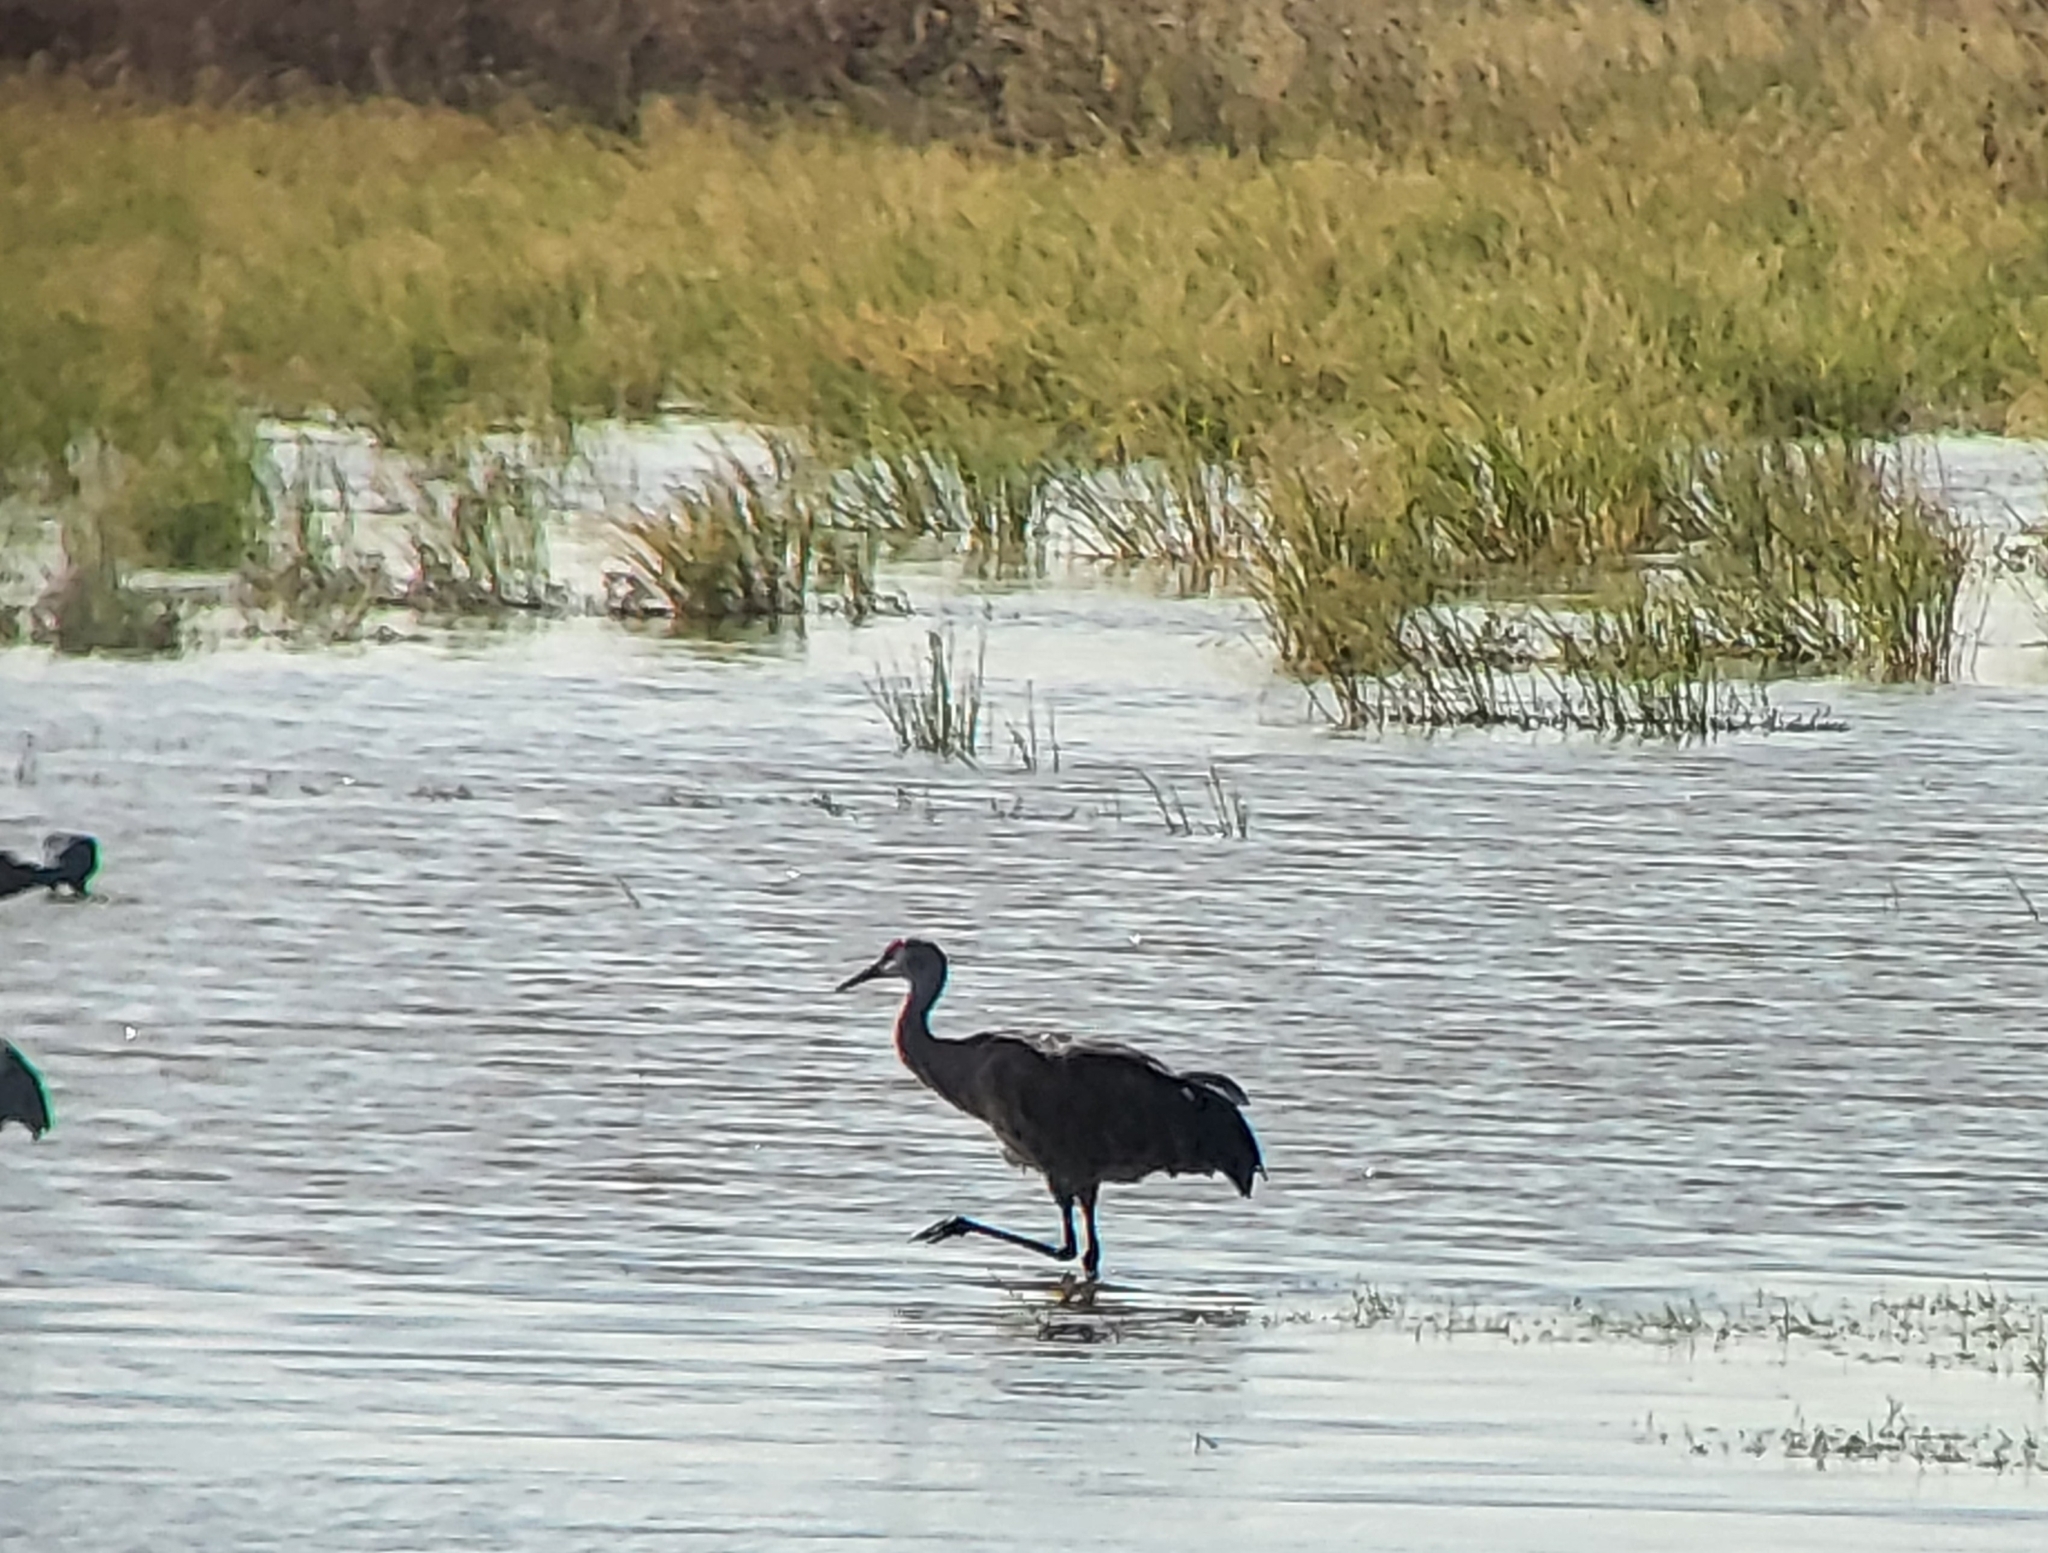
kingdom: Animalia
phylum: Chordata
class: Aves
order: Gruiformes
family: Gruidae
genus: Grus
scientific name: Grus canadensis
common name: Sandhill crane
